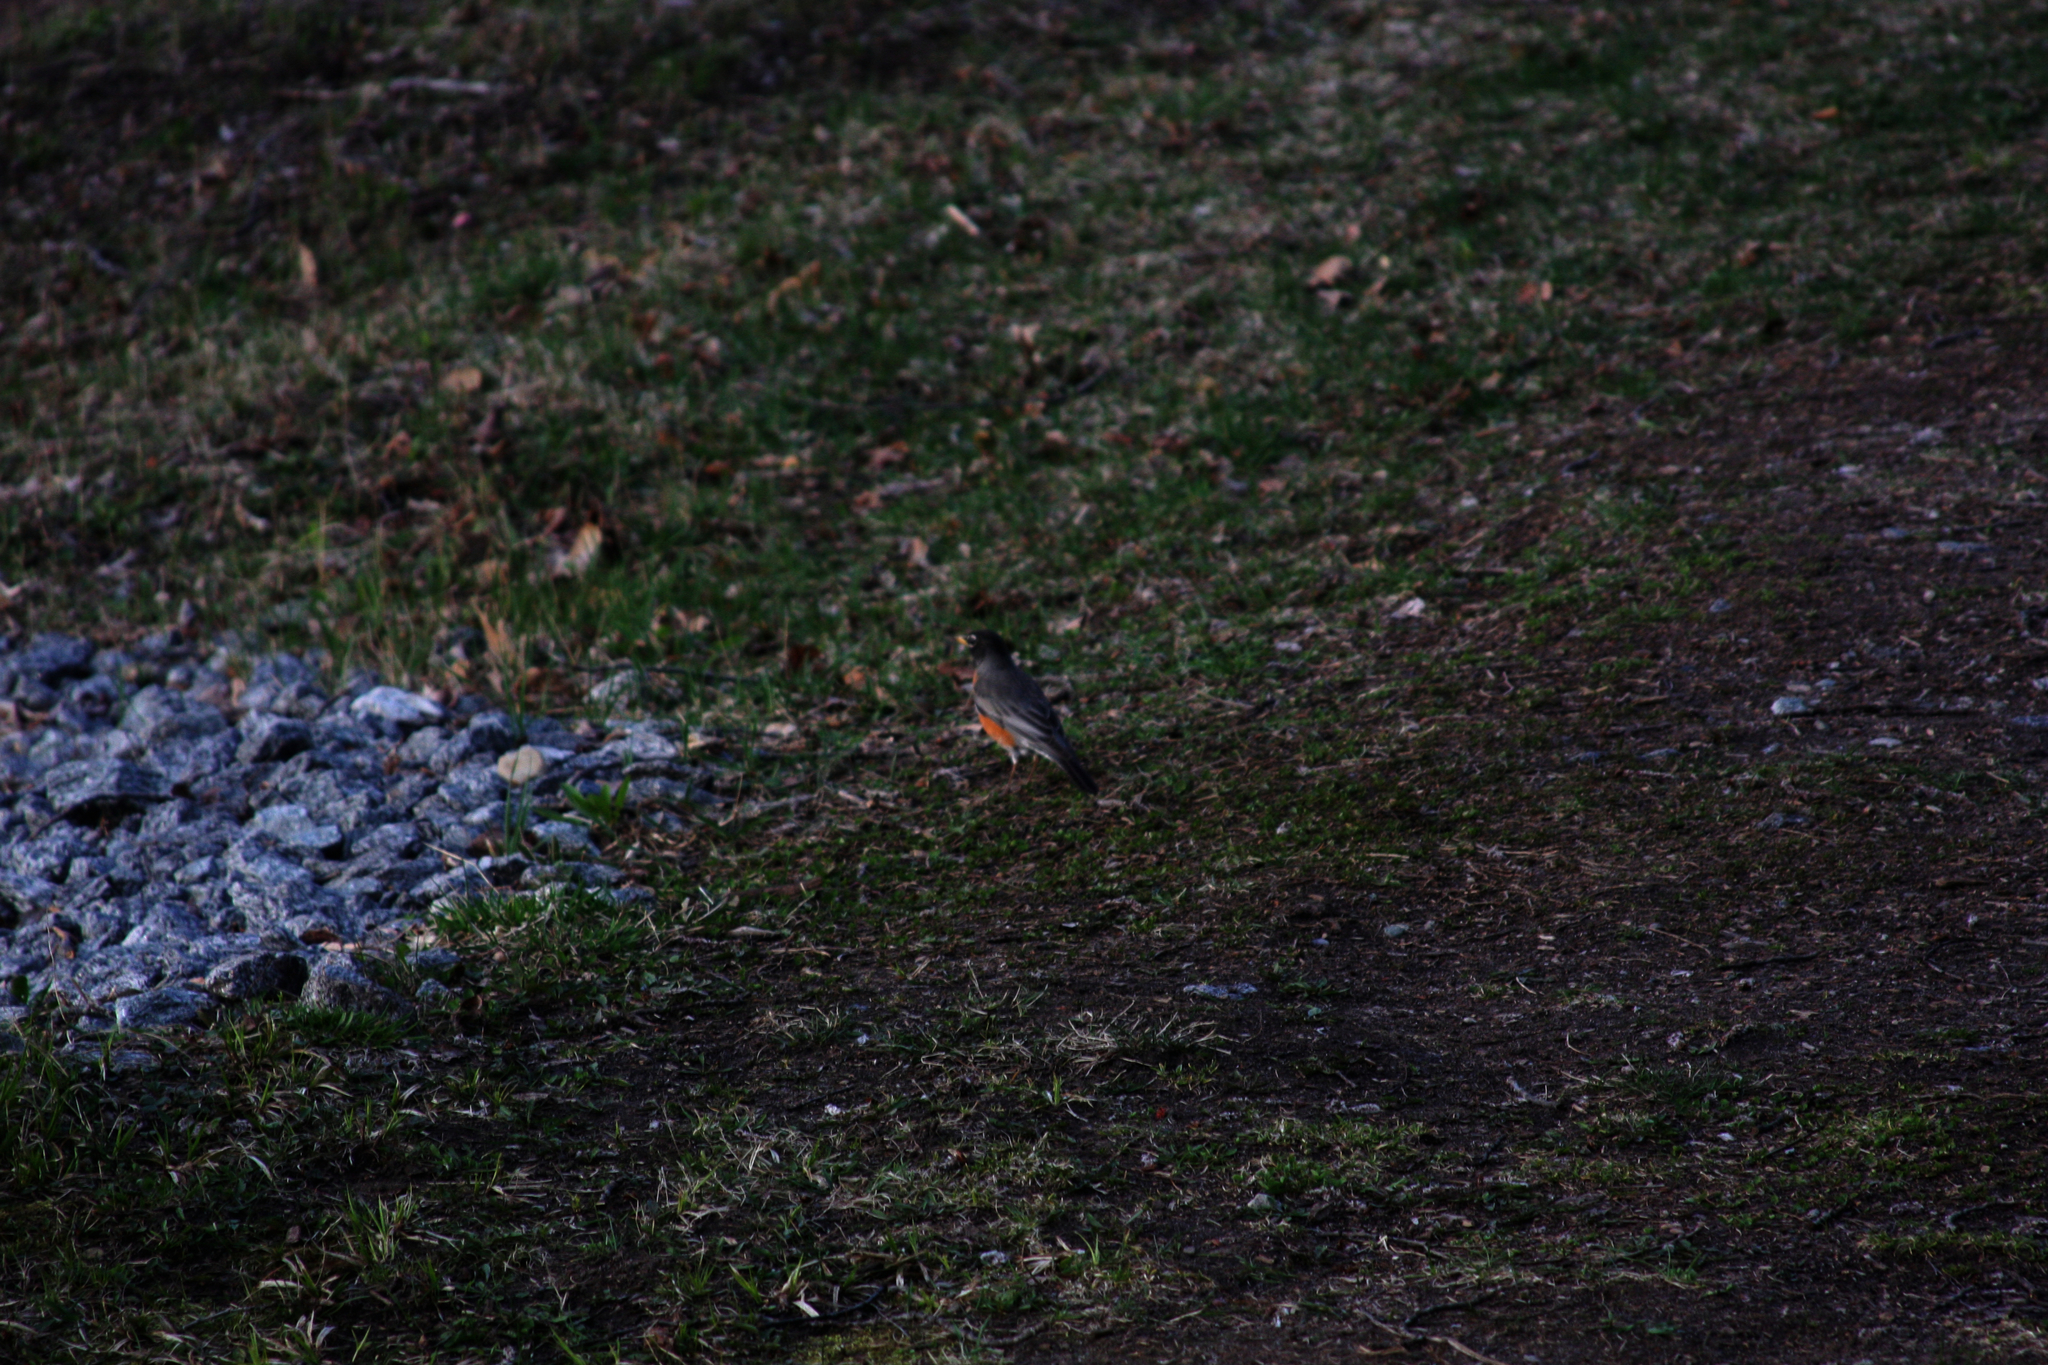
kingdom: Animalia
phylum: Chordata
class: Aves
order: Passeriformes
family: Turdidae
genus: Turdus
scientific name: Turdus migratorius
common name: American robin
